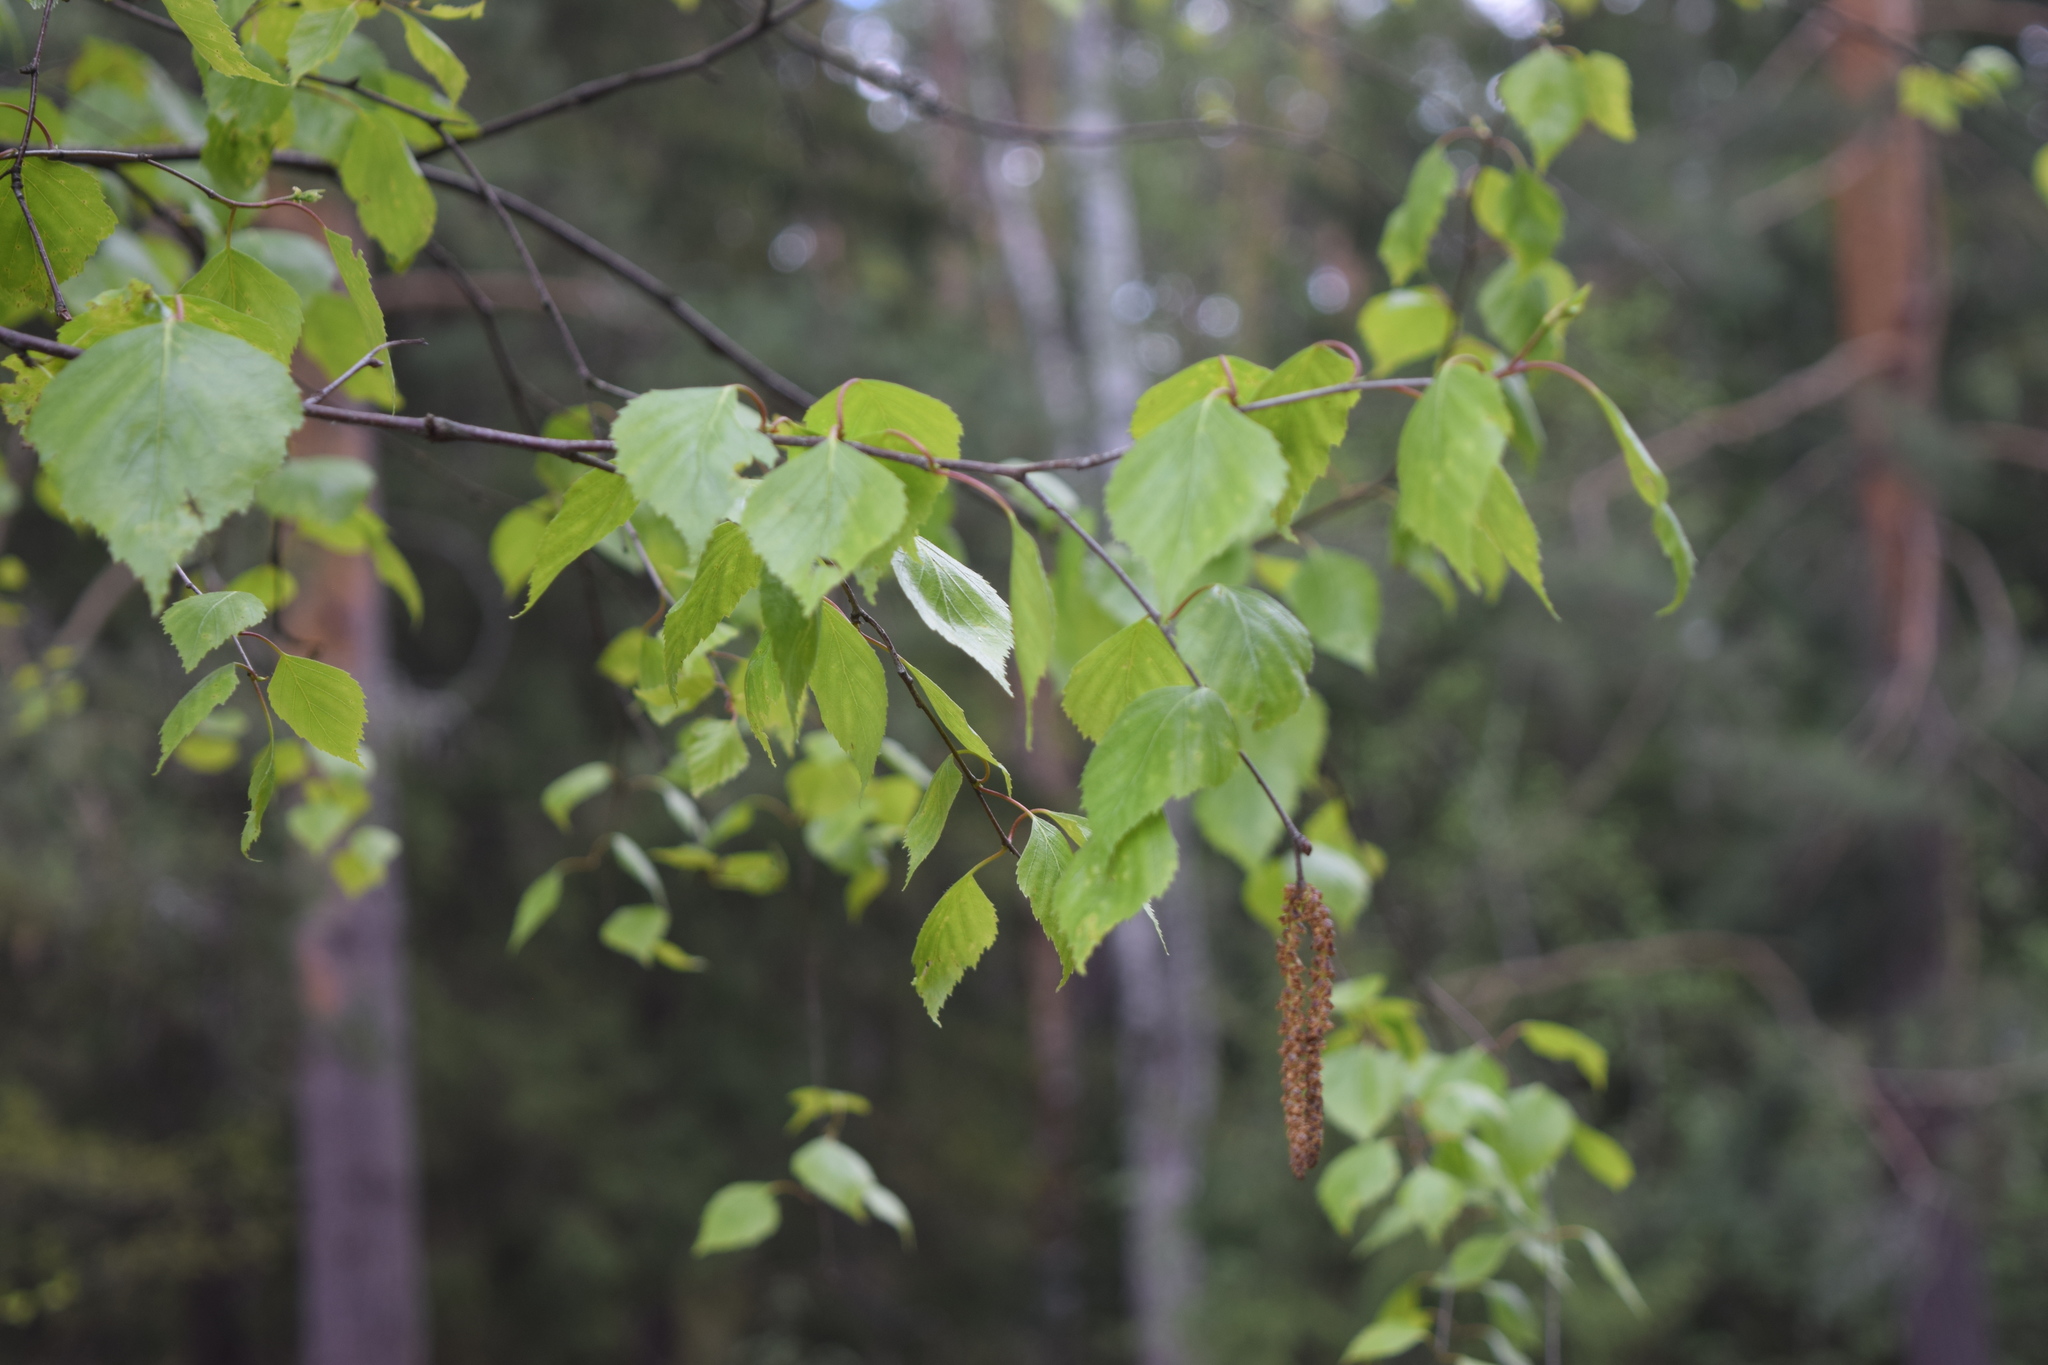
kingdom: Plantae
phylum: Tracheophyta
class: Magnoliopsida
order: Fagales
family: Betulaceae
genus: Betula
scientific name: Betula pendula
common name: Silver birch
